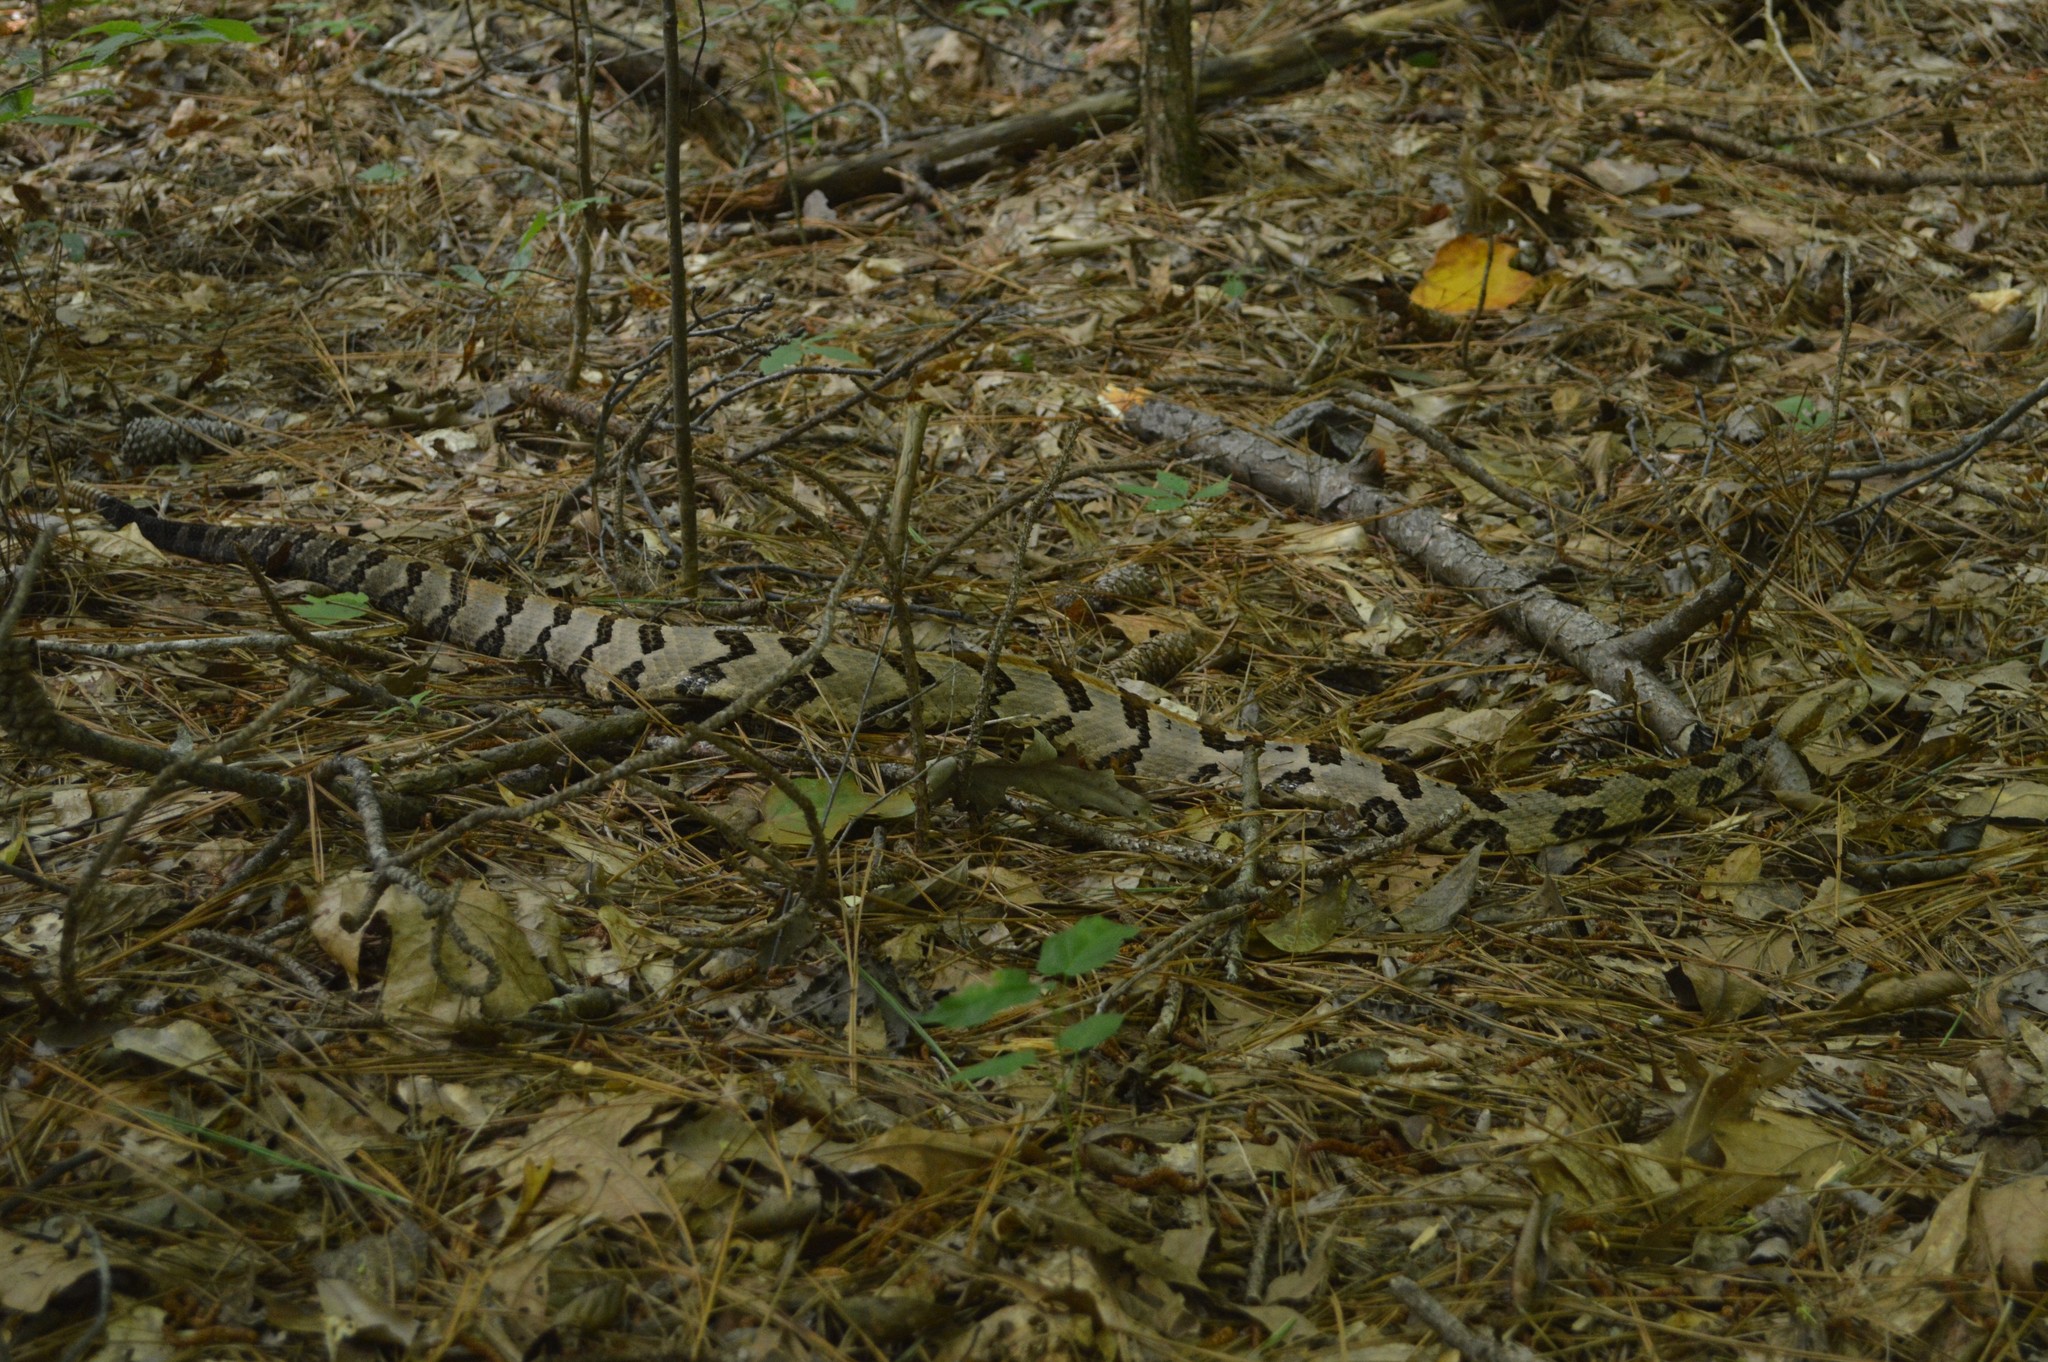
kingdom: Animalia
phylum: Chordata
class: Squamata
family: Viperidae
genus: Crotalus
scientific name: Crotalus horridus
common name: Timber rattlesnake
